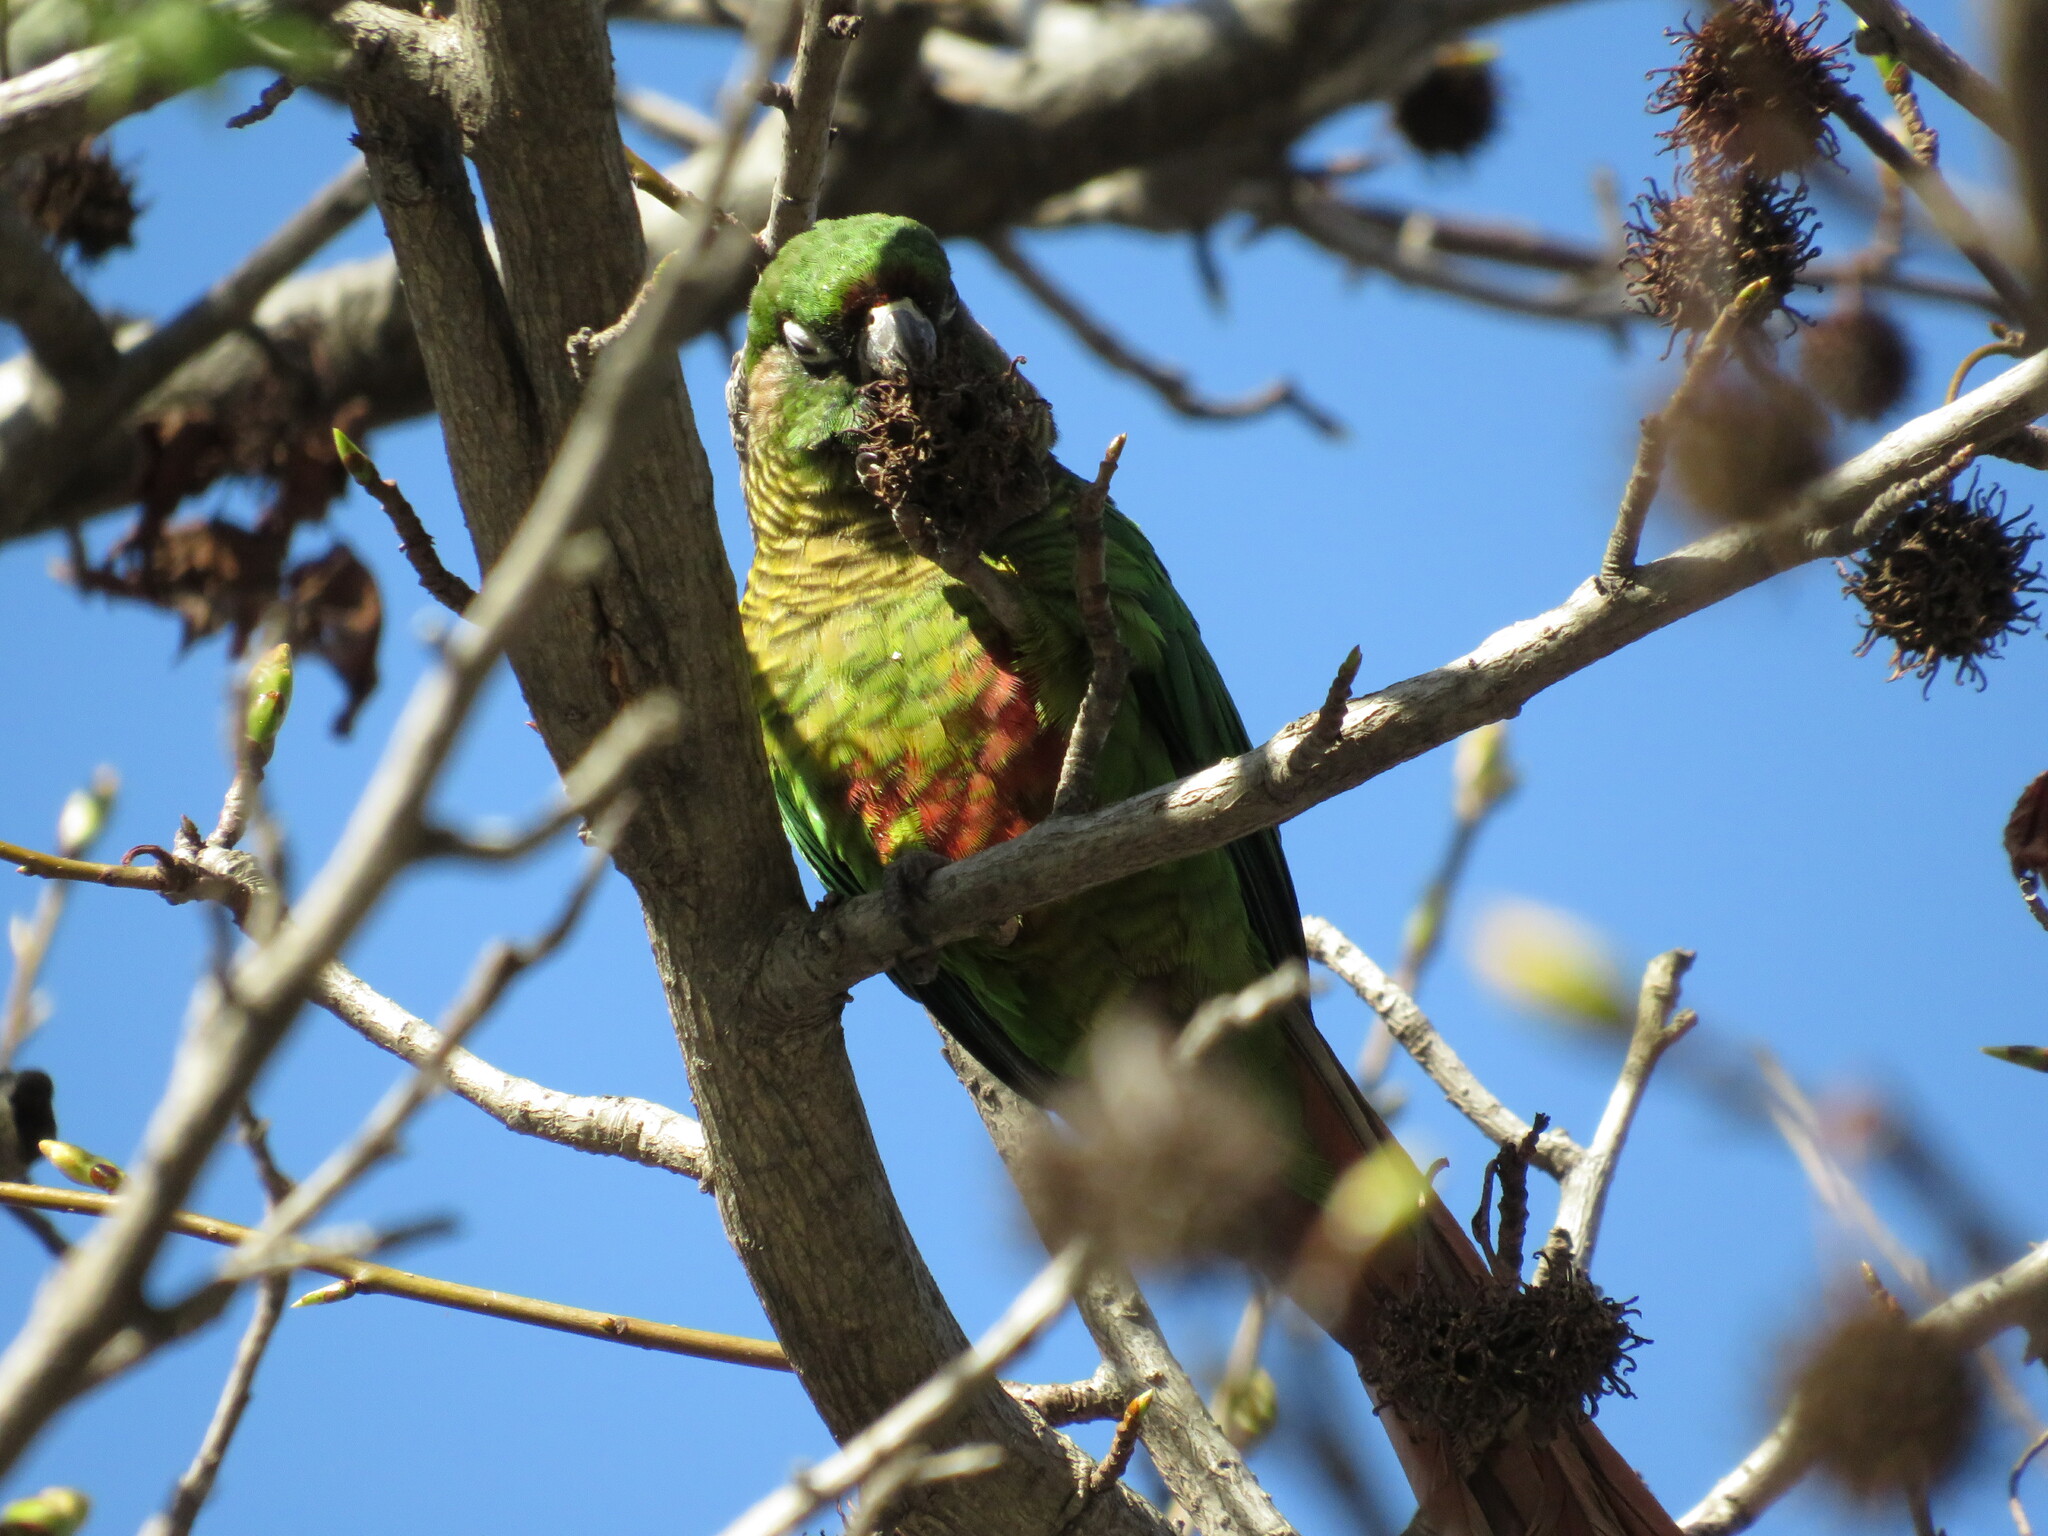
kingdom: Animalia
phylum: Chordata
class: Aves
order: Psittaciformes
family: Psittacidae
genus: Pyrrhura
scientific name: Pyrrhura frontalis
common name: Maroon-bellied parakeet
